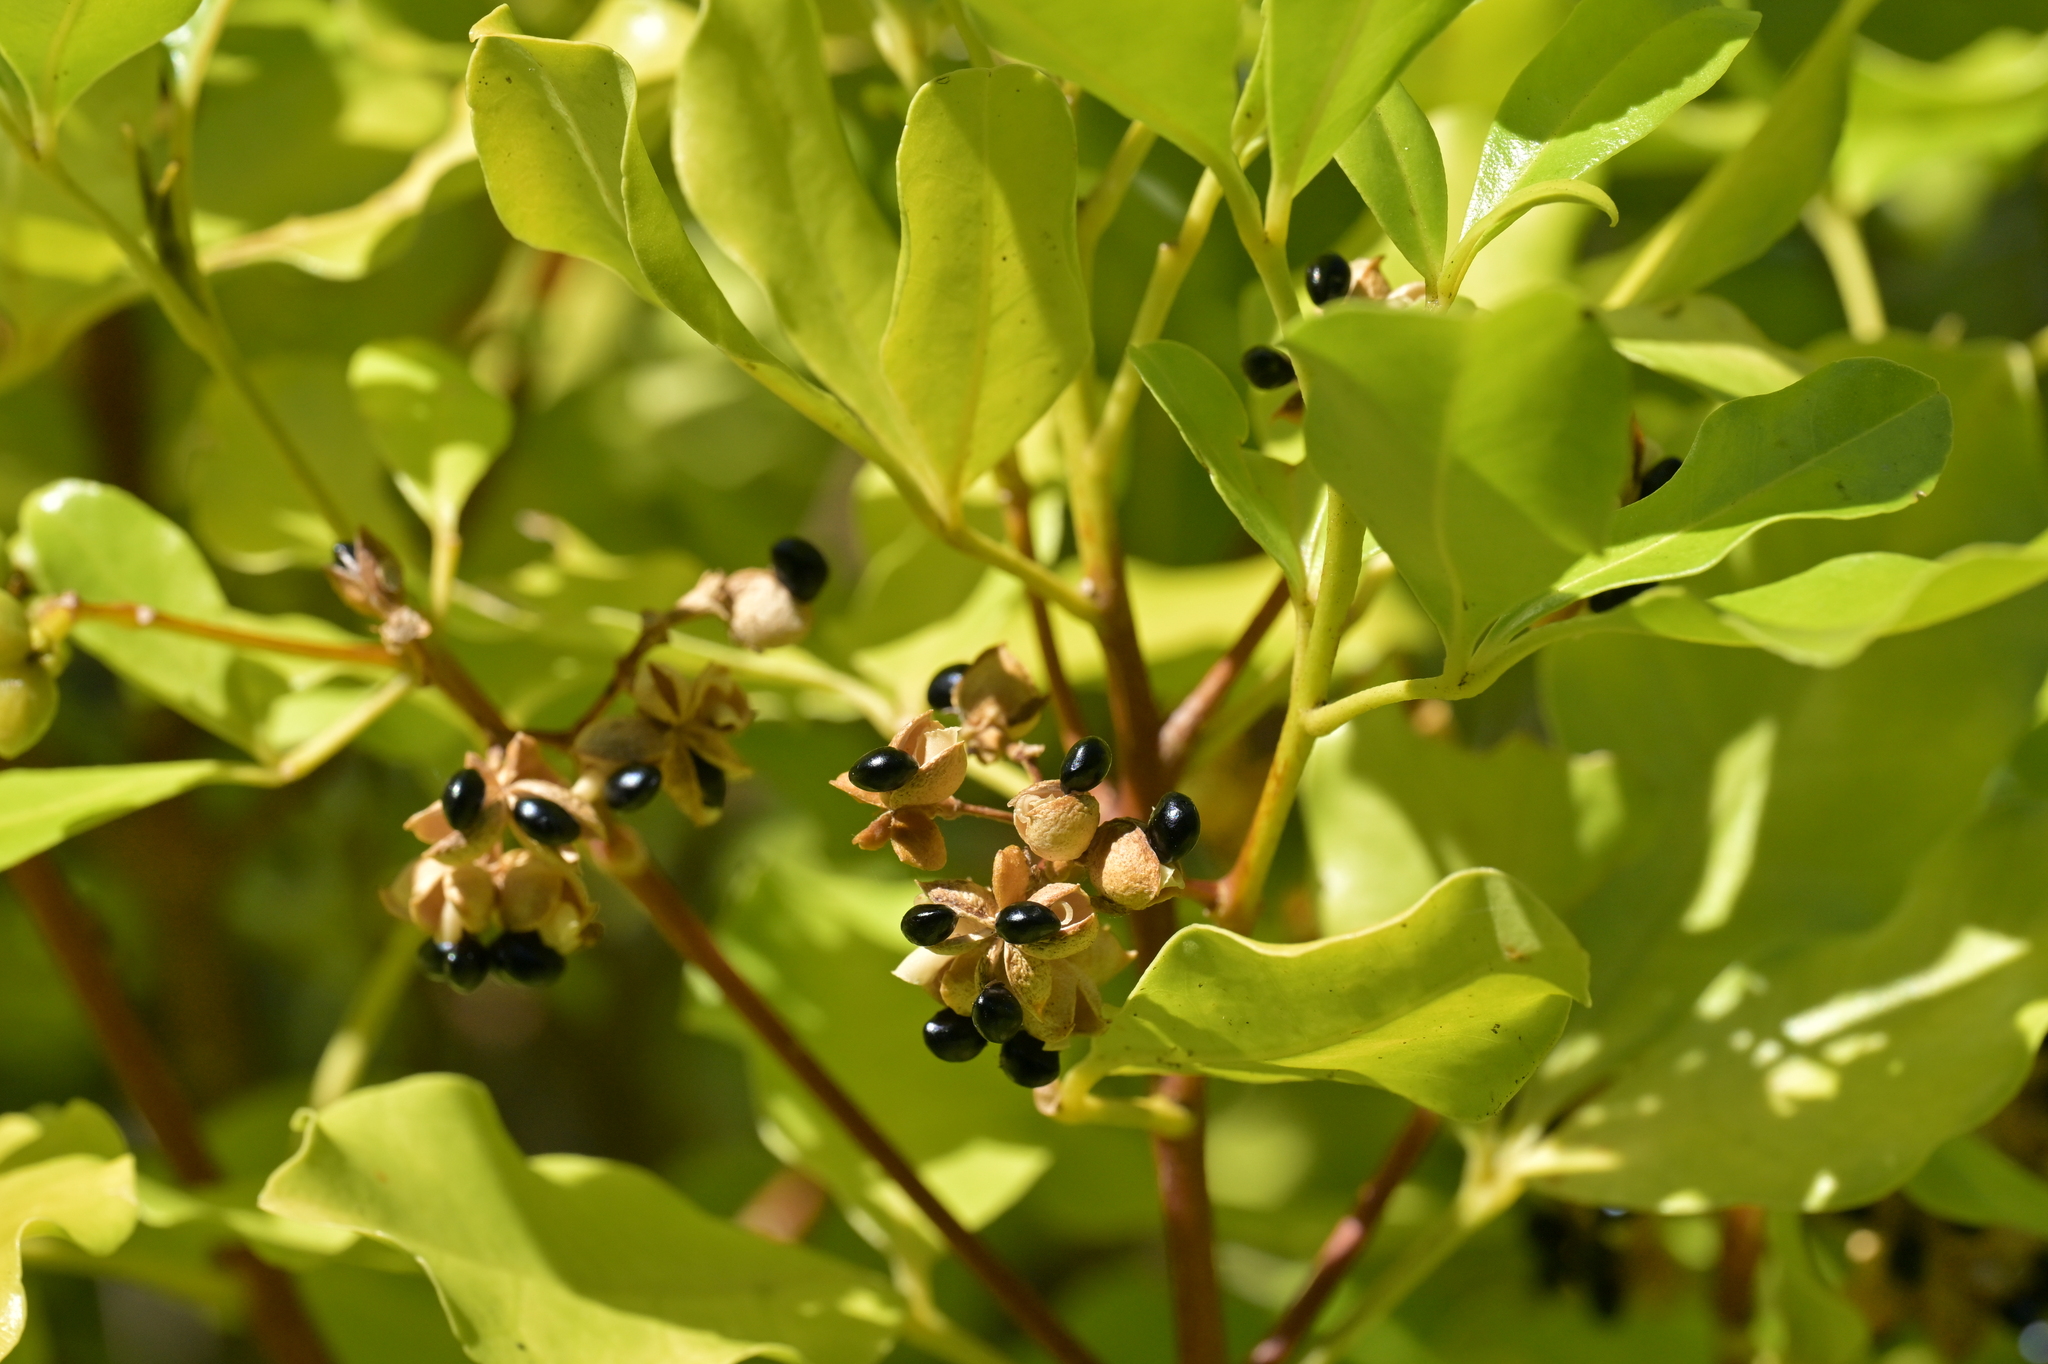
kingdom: Plantae
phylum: Tracheophyta
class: Magnoliopsida
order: Sapindales
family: Rutaceae
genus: Melicope
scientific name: Melicope ternata
